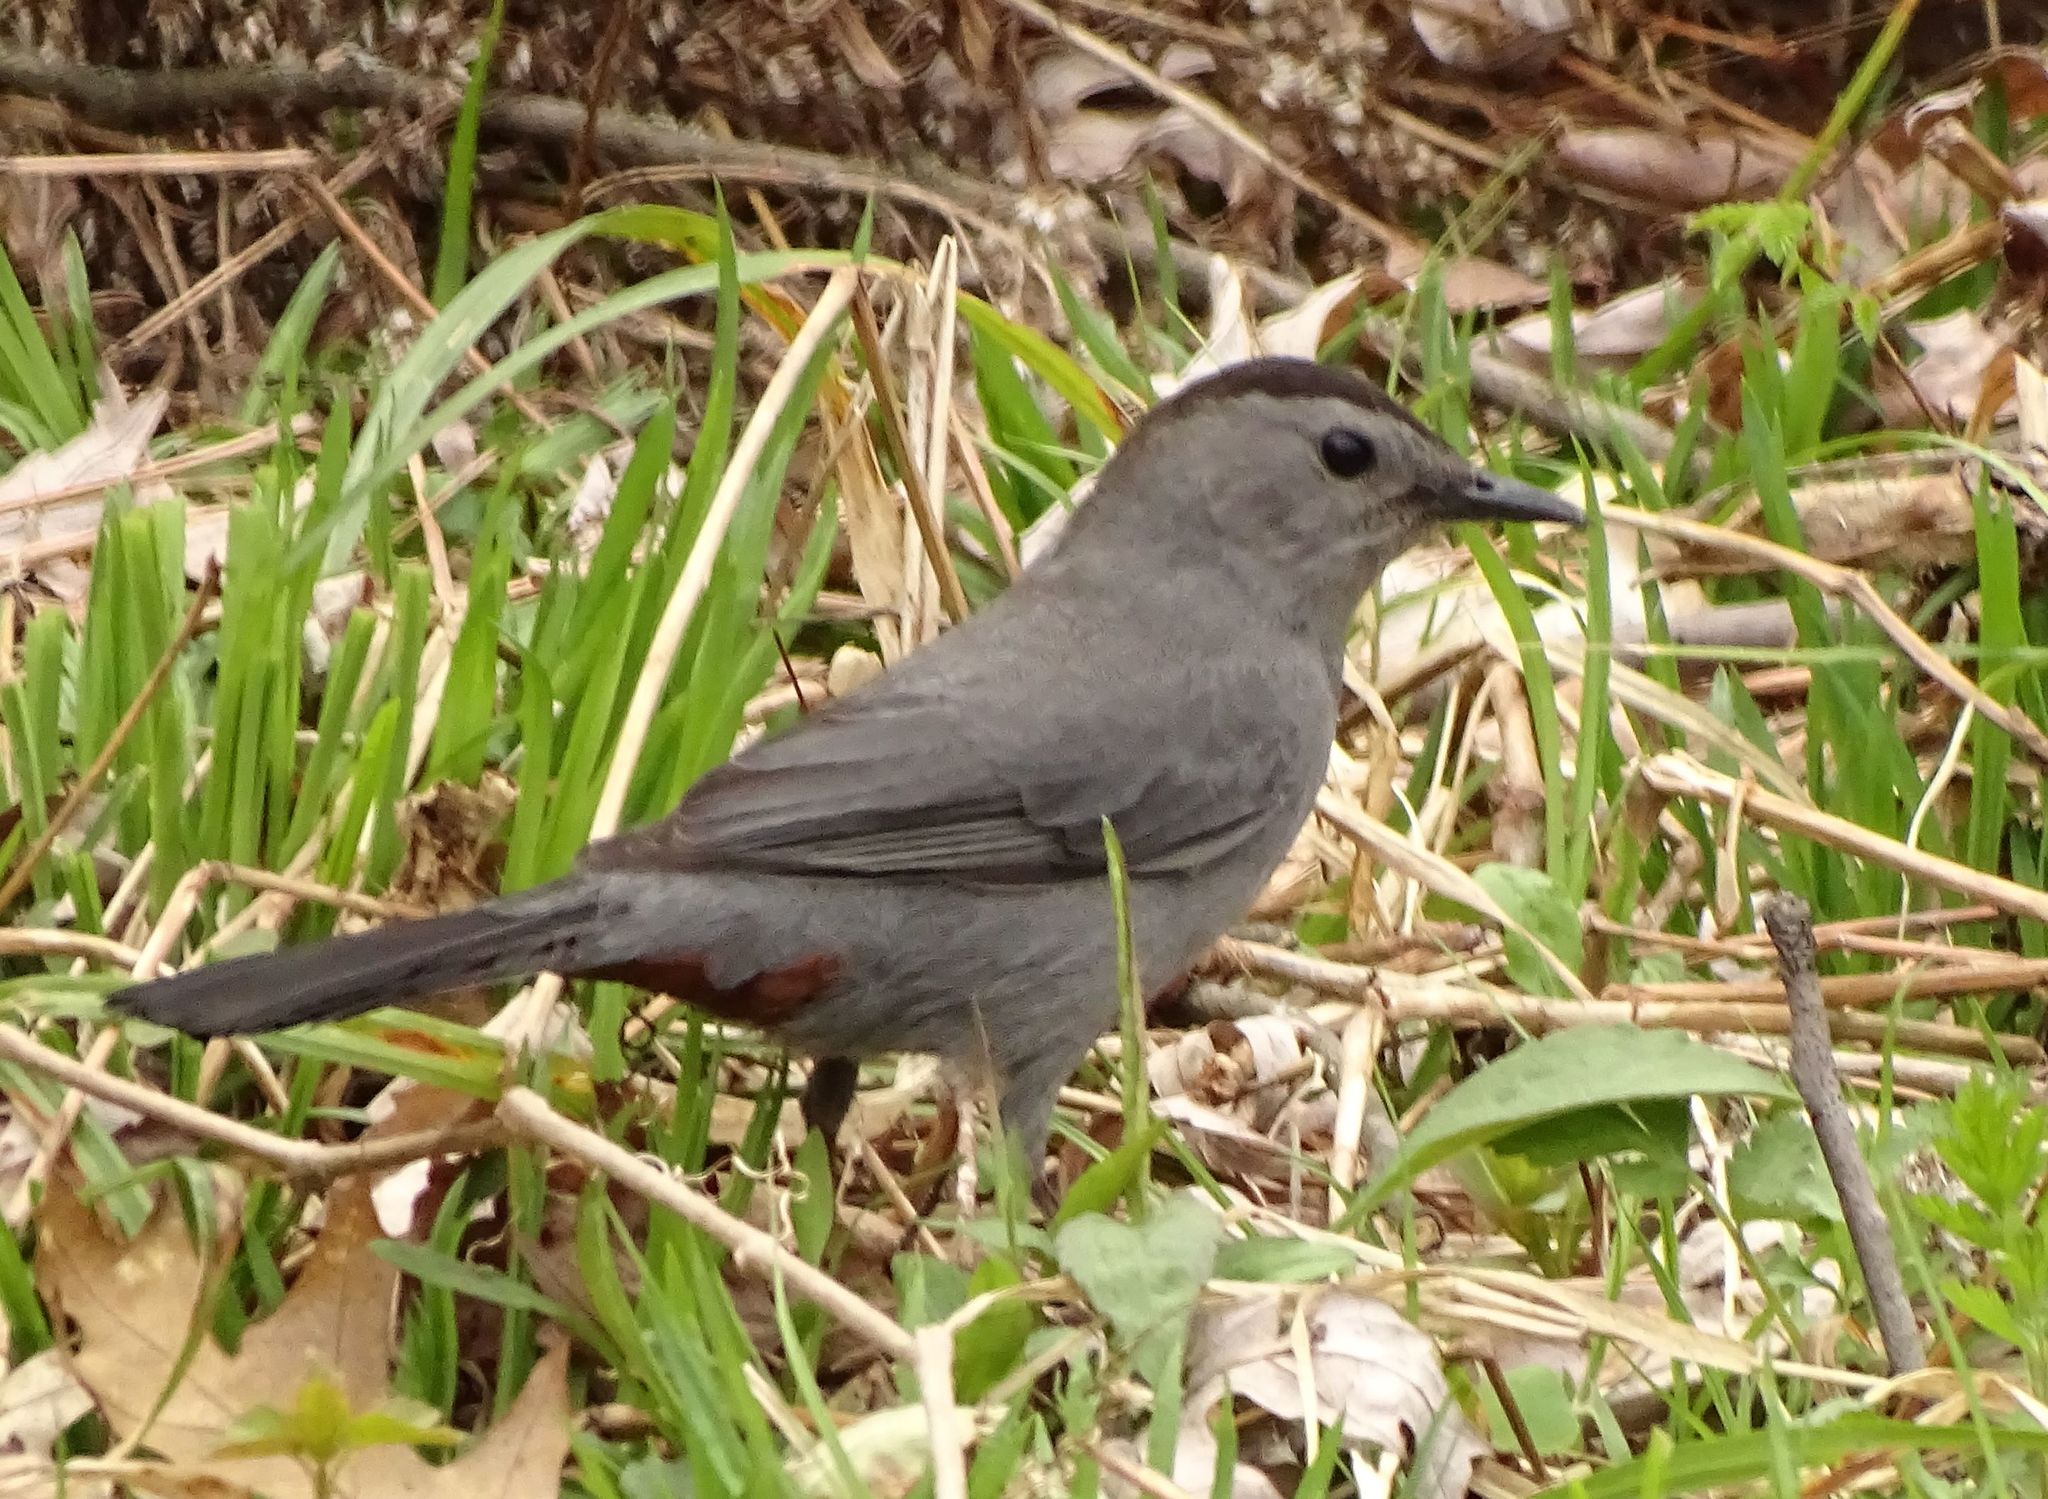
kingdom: Animalia
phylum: Chordata
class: Aves
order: Passeriformes
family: Mimidae
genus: Dumetella
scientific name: Dumetella carolinensis
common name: Gray catbird
